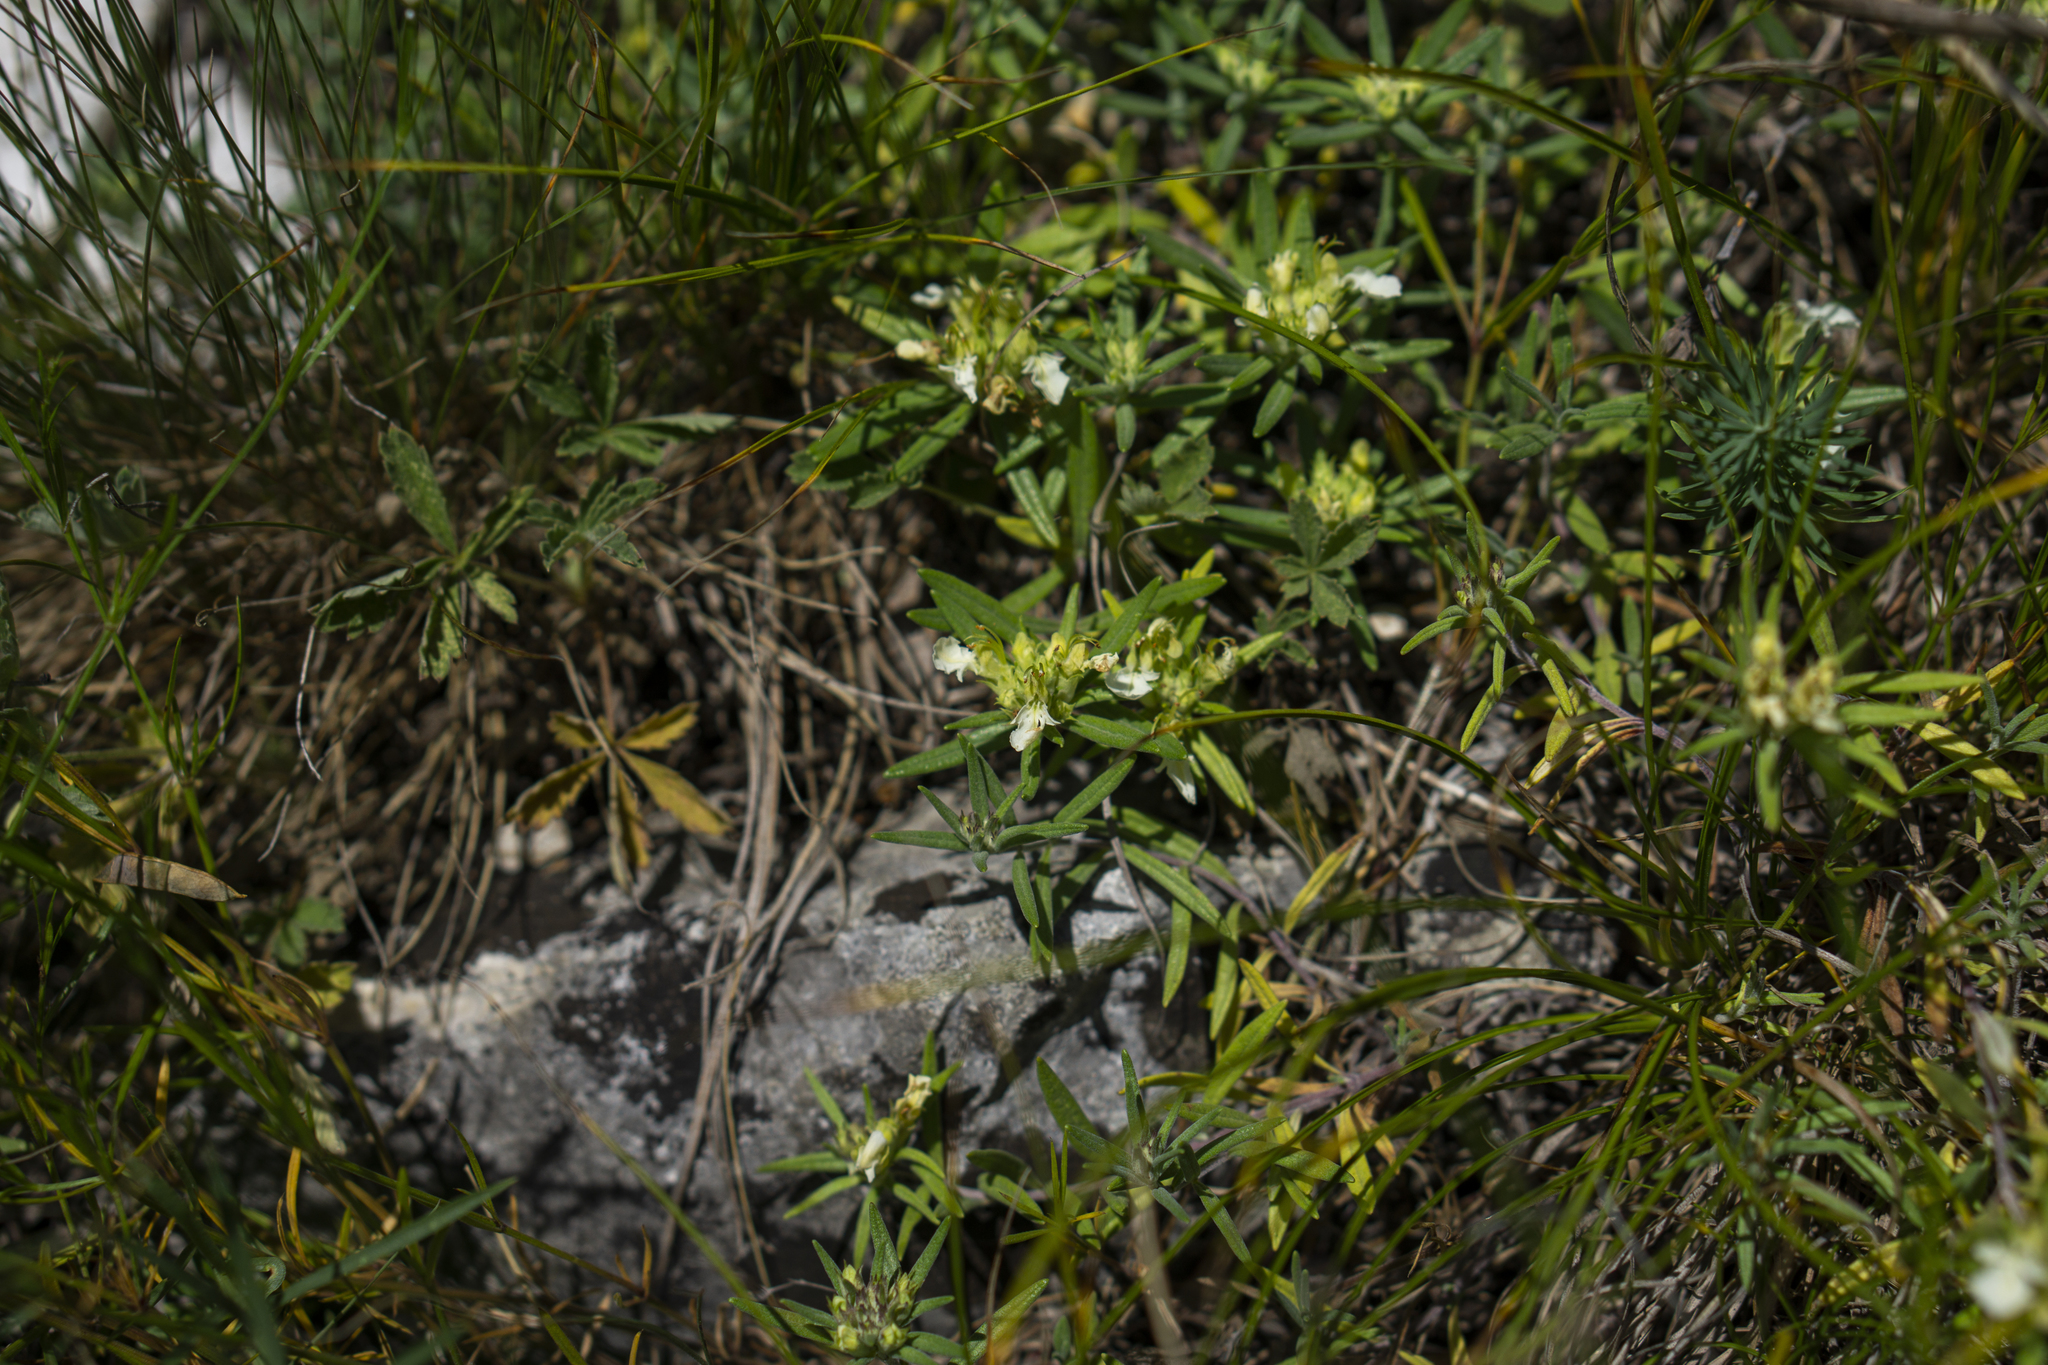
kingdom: Plantae
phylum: Tracheophyta
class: Magnoliopsida
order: Lamiales
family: Lamiaceae
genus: Teucrium
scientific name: Teucrium montanum
